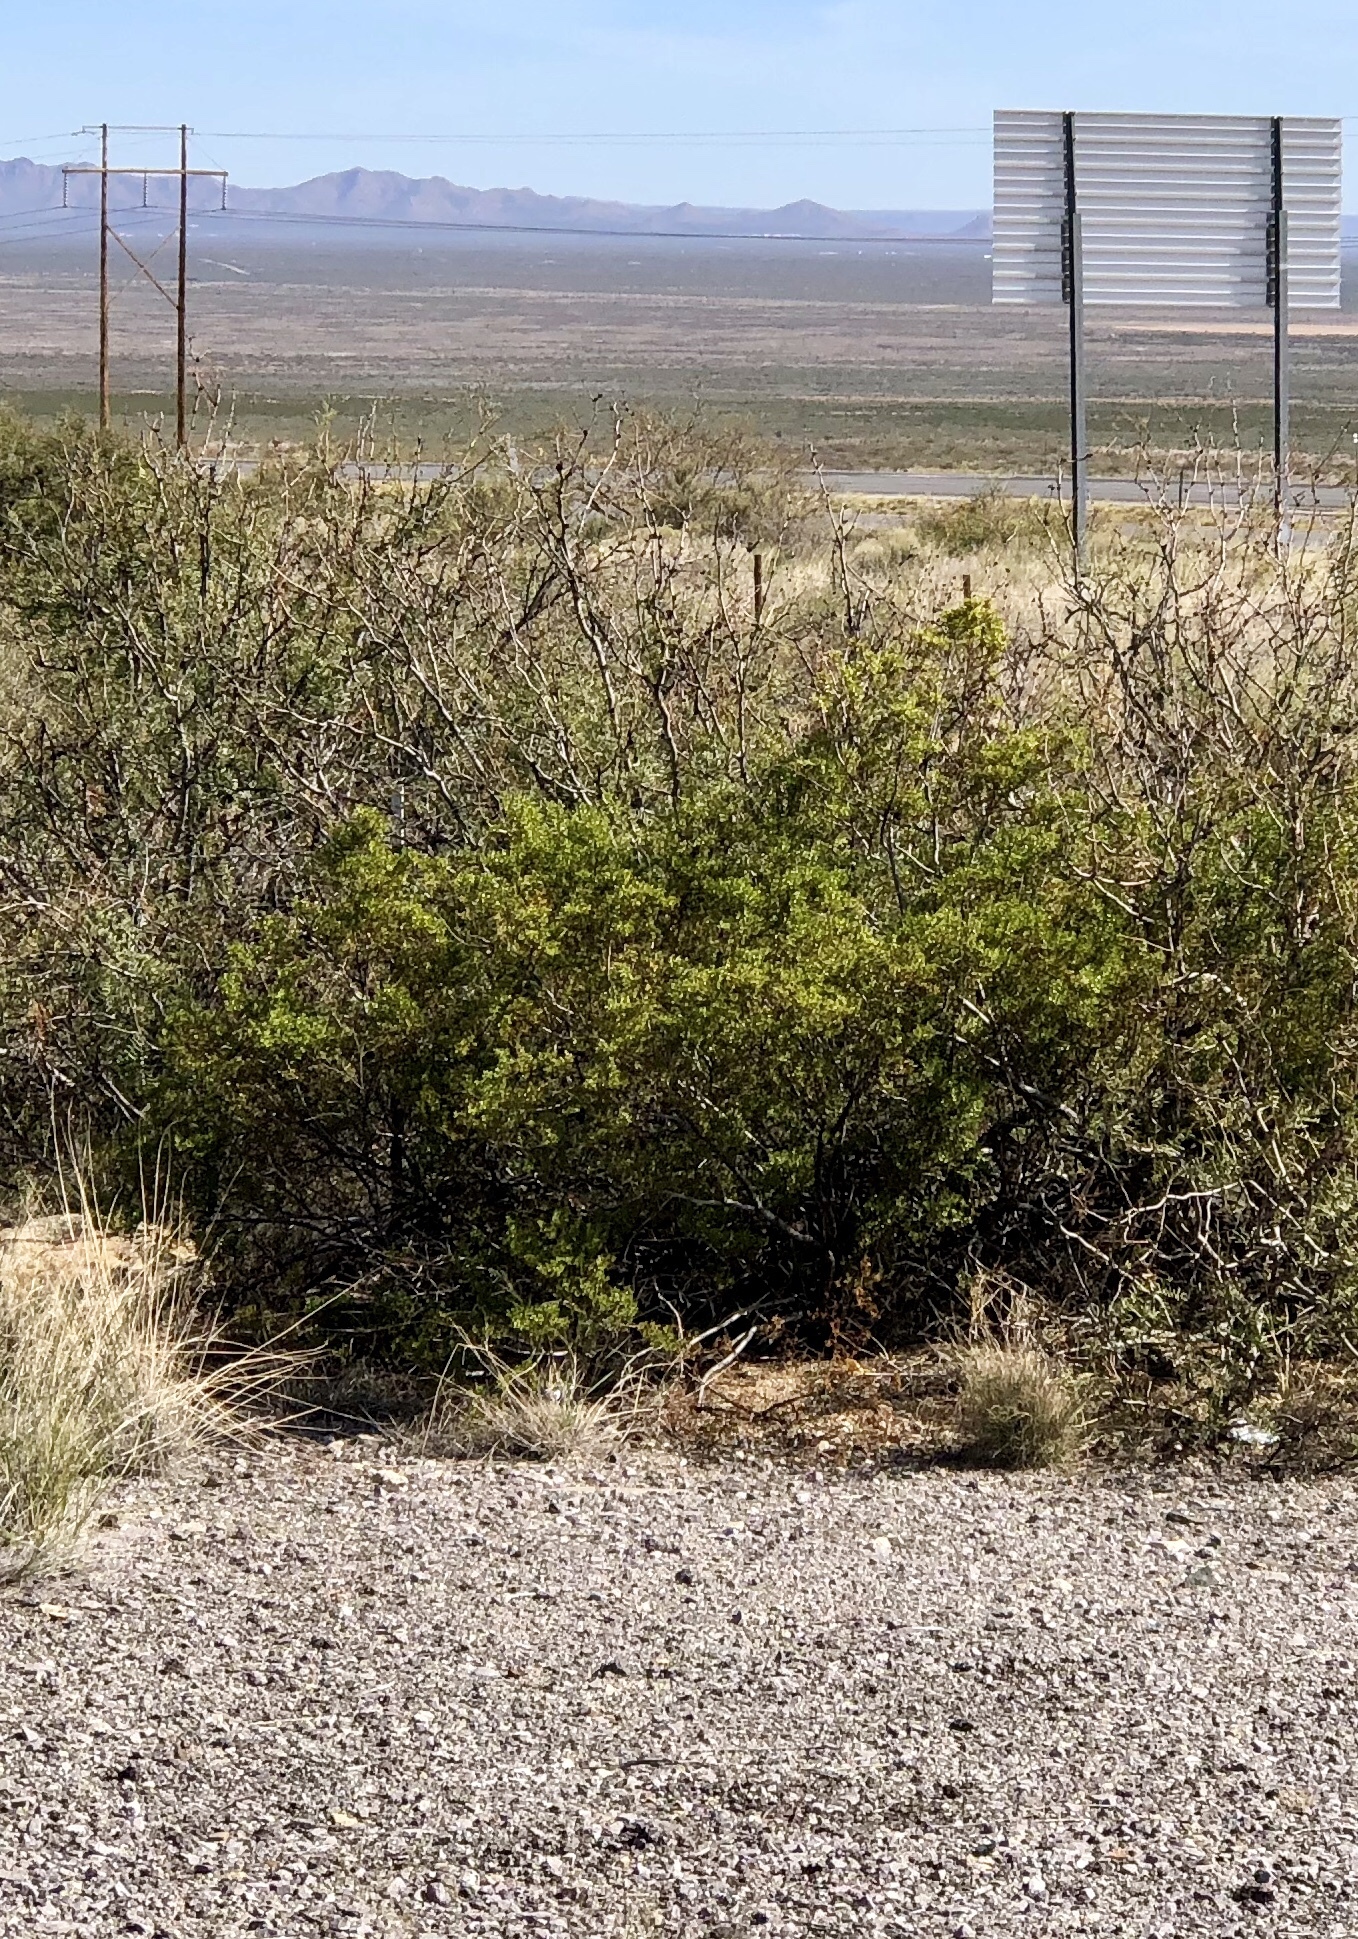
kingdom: Plantae
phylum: Tracheophyta
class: Magnoliopsida
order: Zygophyllales
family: Zygophyllaceae
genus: Larrea
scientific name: Larrea tridentata
